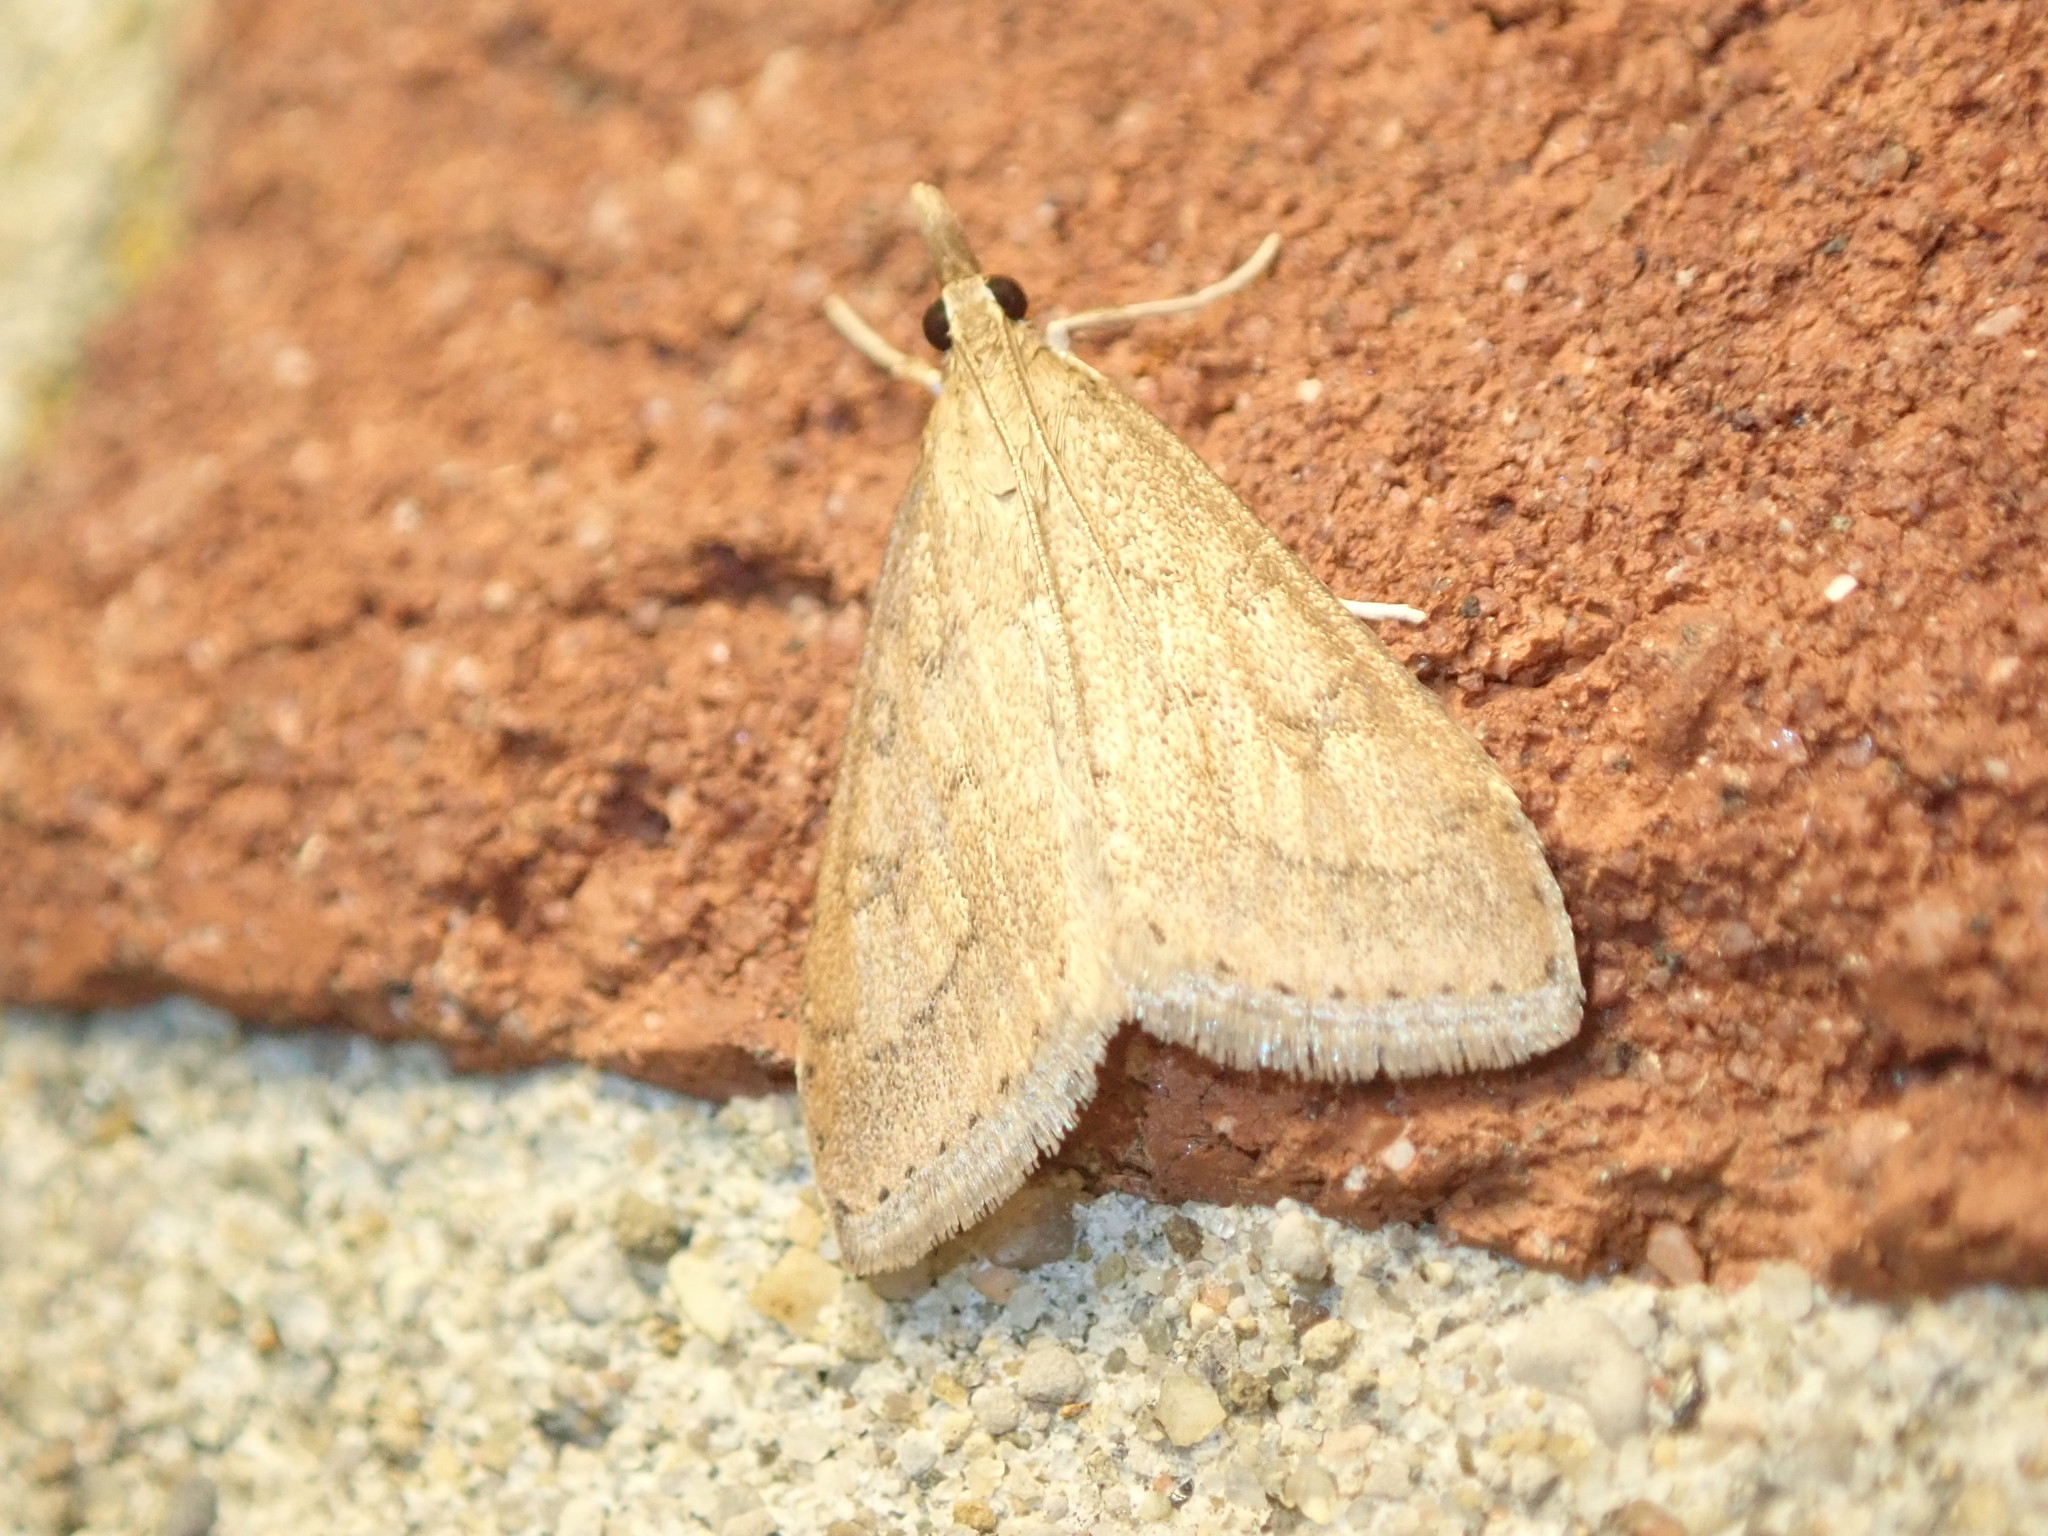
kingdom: Animalia
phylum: Arthropoda
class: Insecta
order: Lepidoptera
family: Crambidae
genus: Udea
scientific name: Udea rubigalis
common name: Celery leaftier moth
